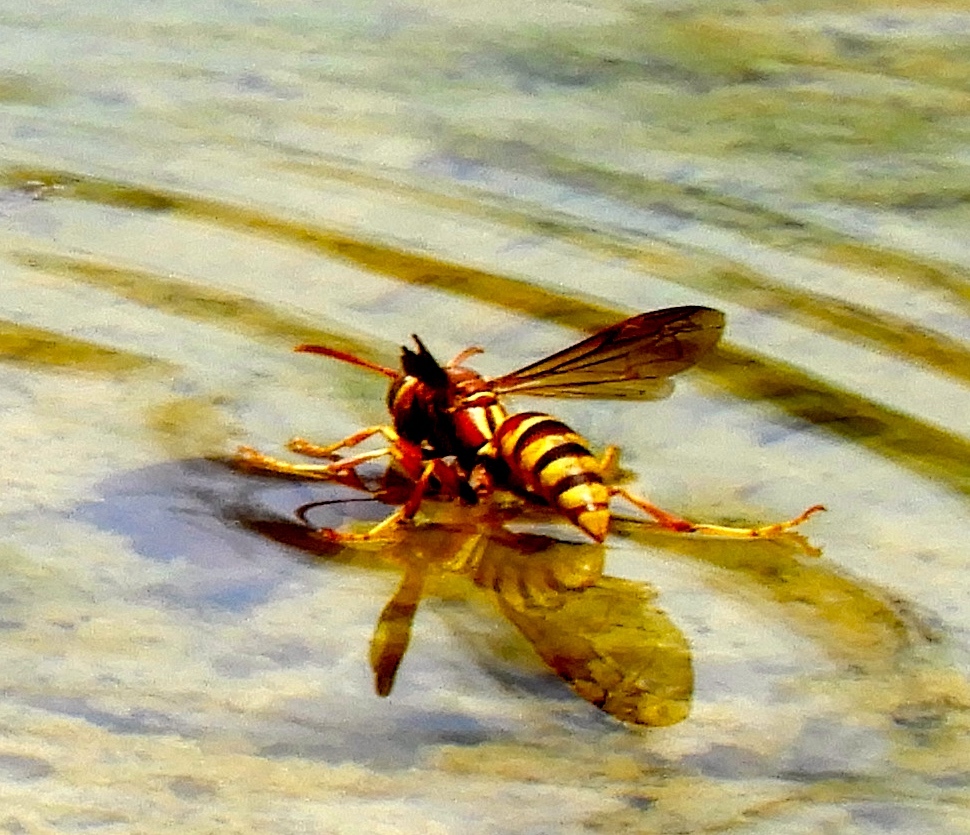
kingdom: Animalia
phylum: Arthropoda
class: Insecta
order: Hymenoptera
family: Eumenidae
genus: Polistes
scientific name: Polistes dorsalis
